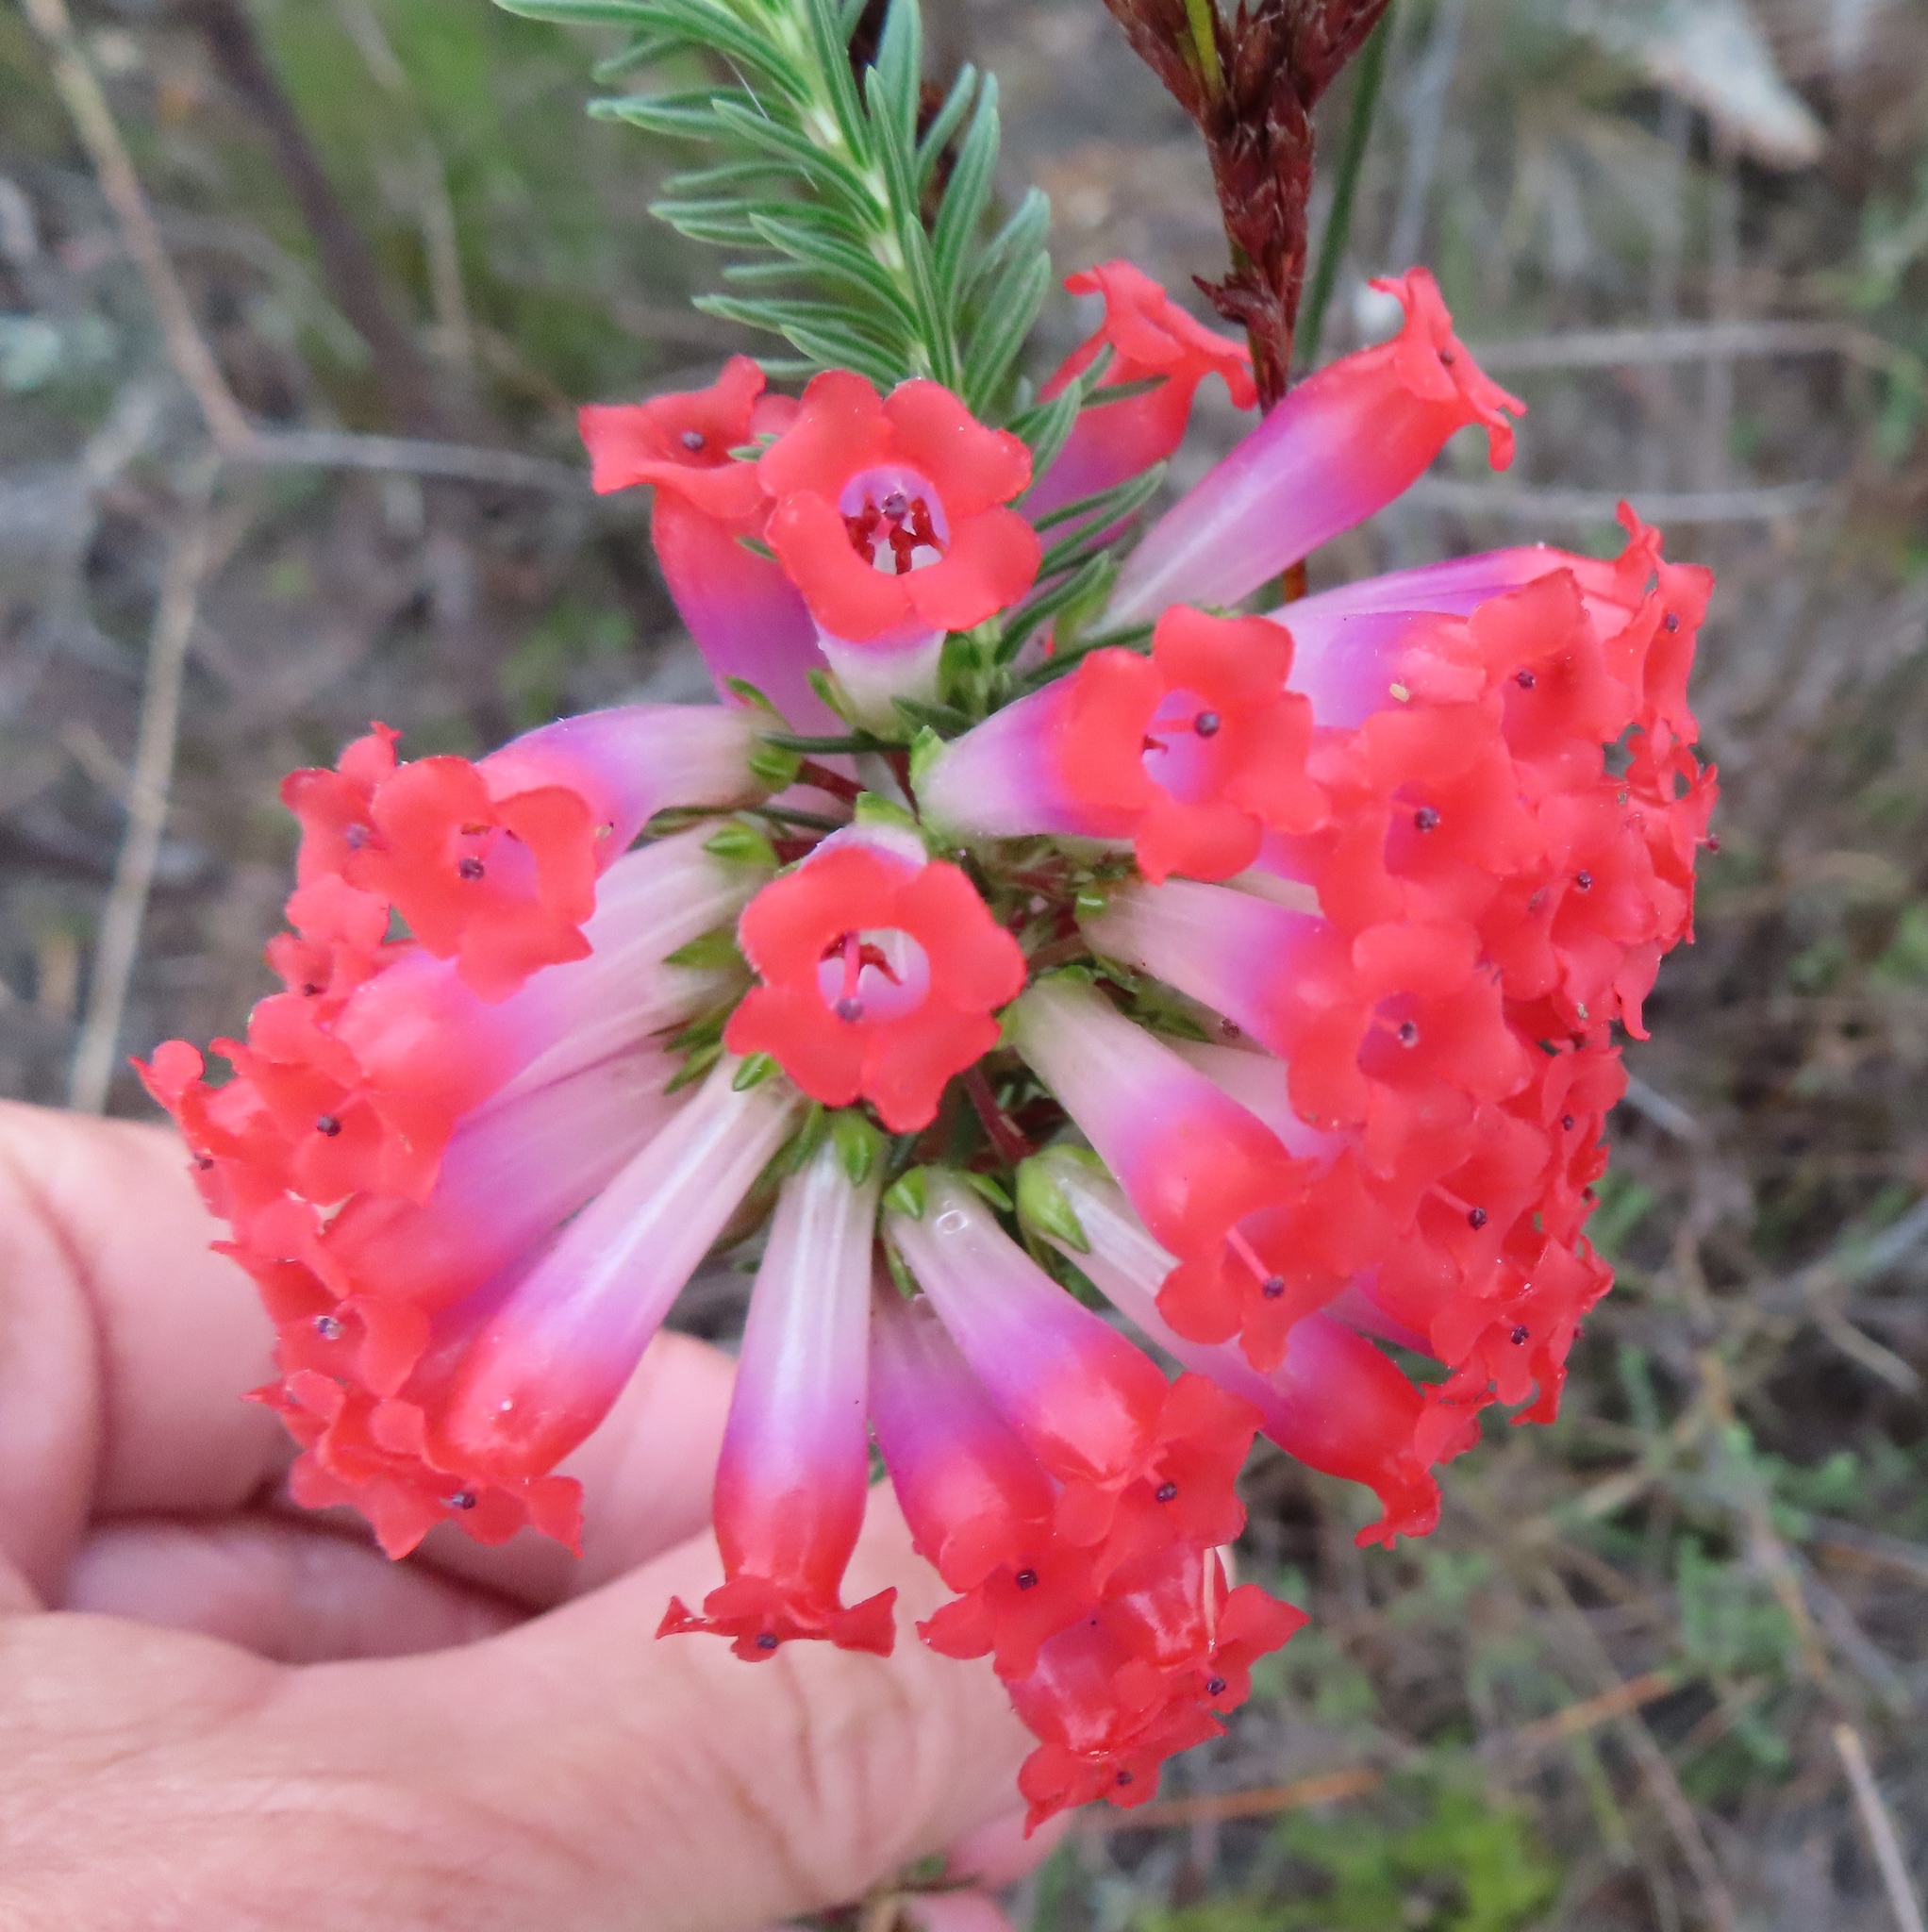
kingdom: Plantae
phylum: Tracheophyta
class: Magnoliopsida
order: Ericales
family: Ericaceae
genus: Erica
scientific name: Erica regia
